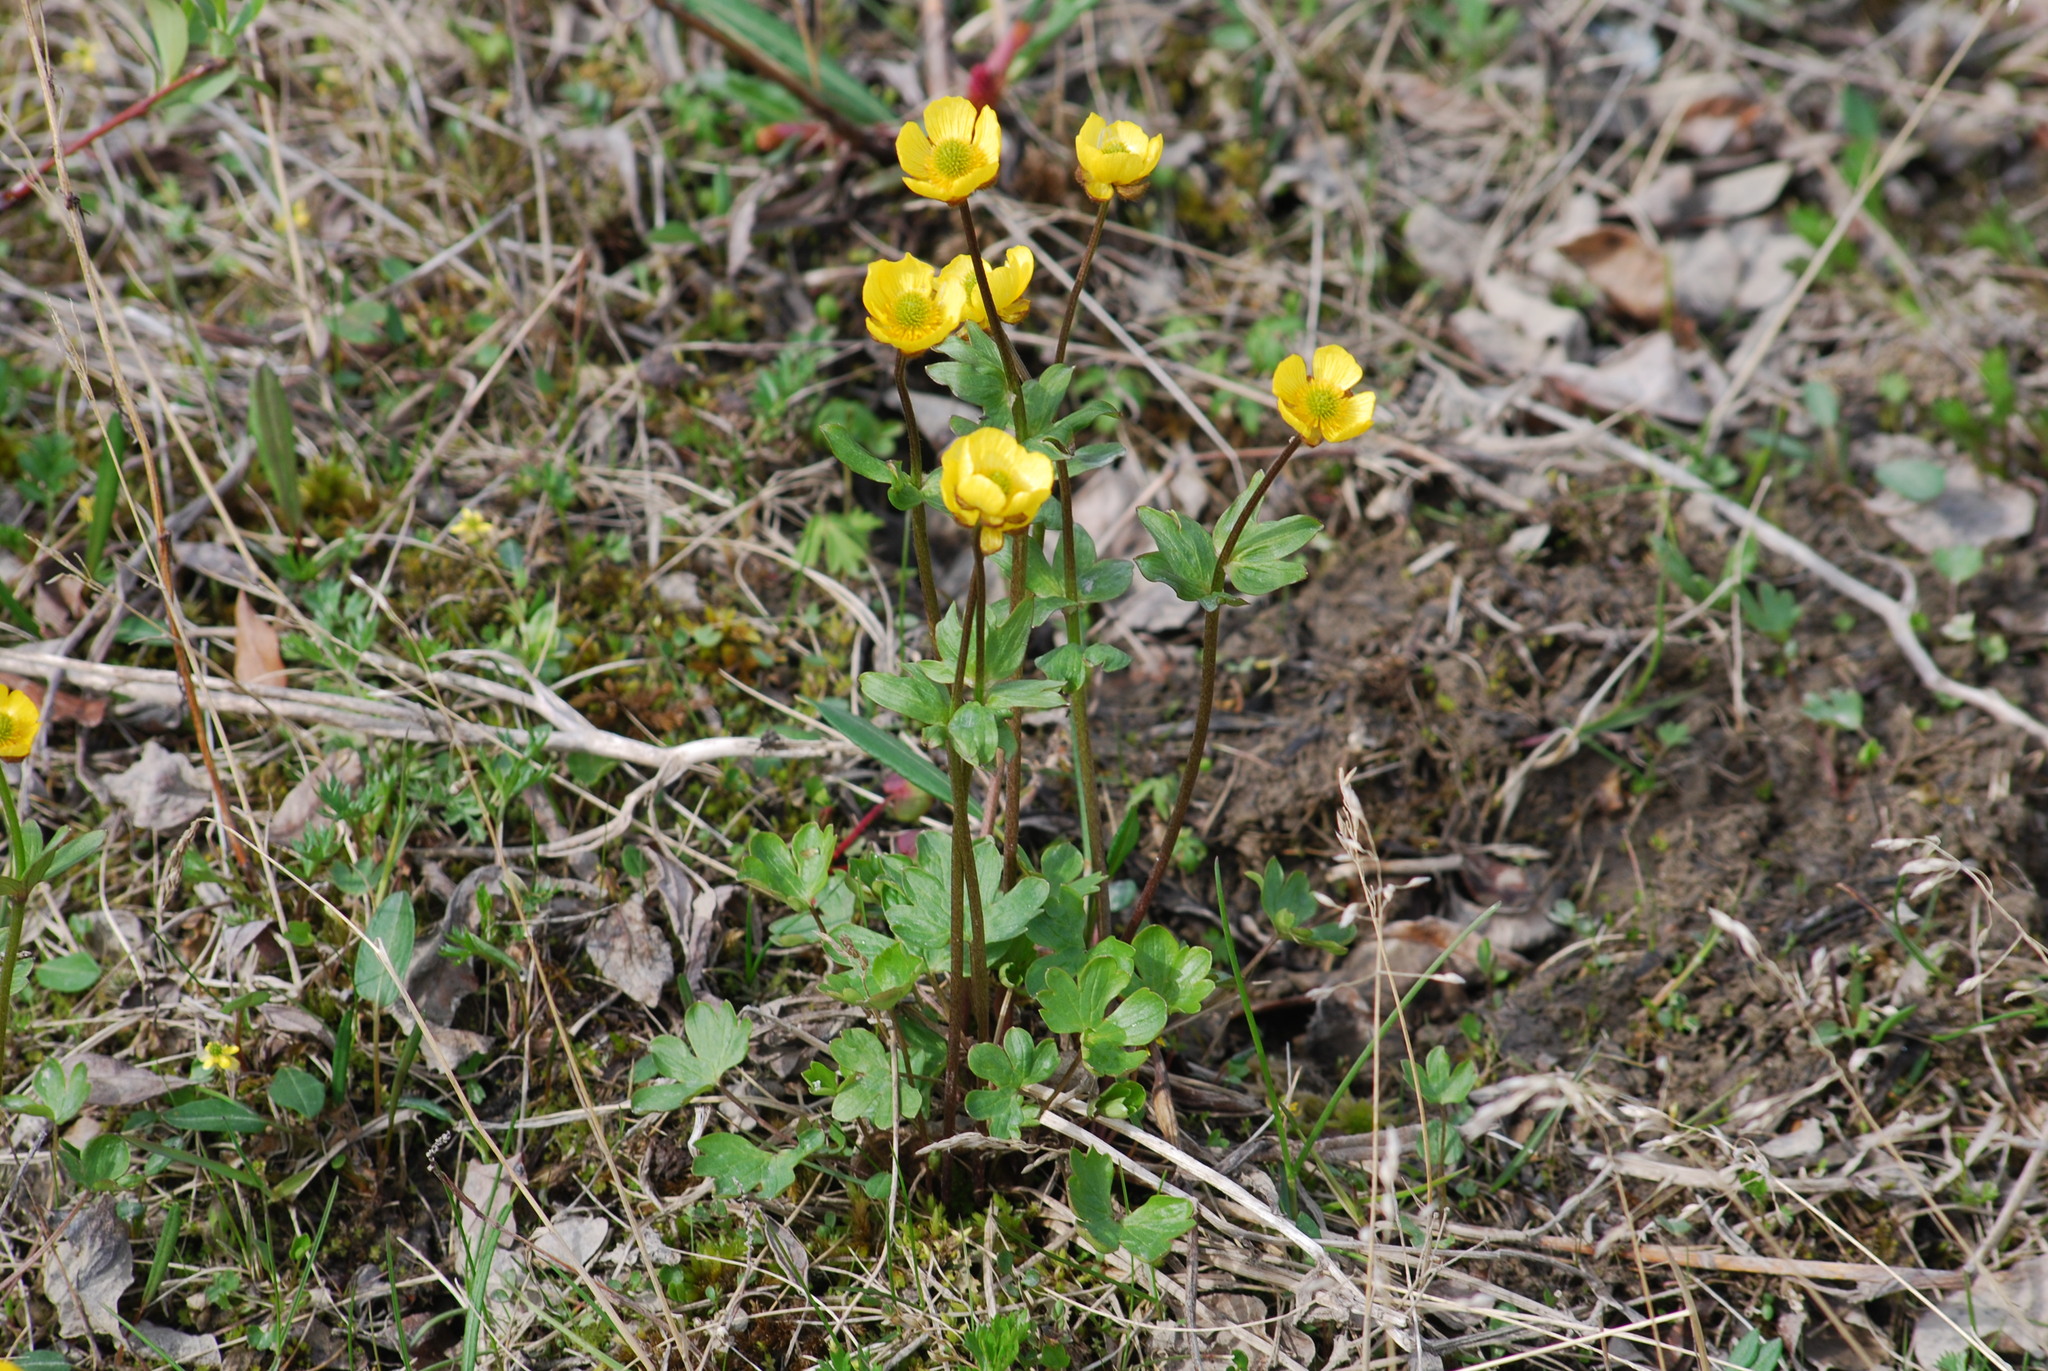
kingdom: Plantae
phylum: Tracheophyta
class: Magnoliopsida
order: Ranunculales
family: Ranunculaceae
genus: Ranunculus
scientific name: Ranunculus nivalis
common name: Snow buttercup
